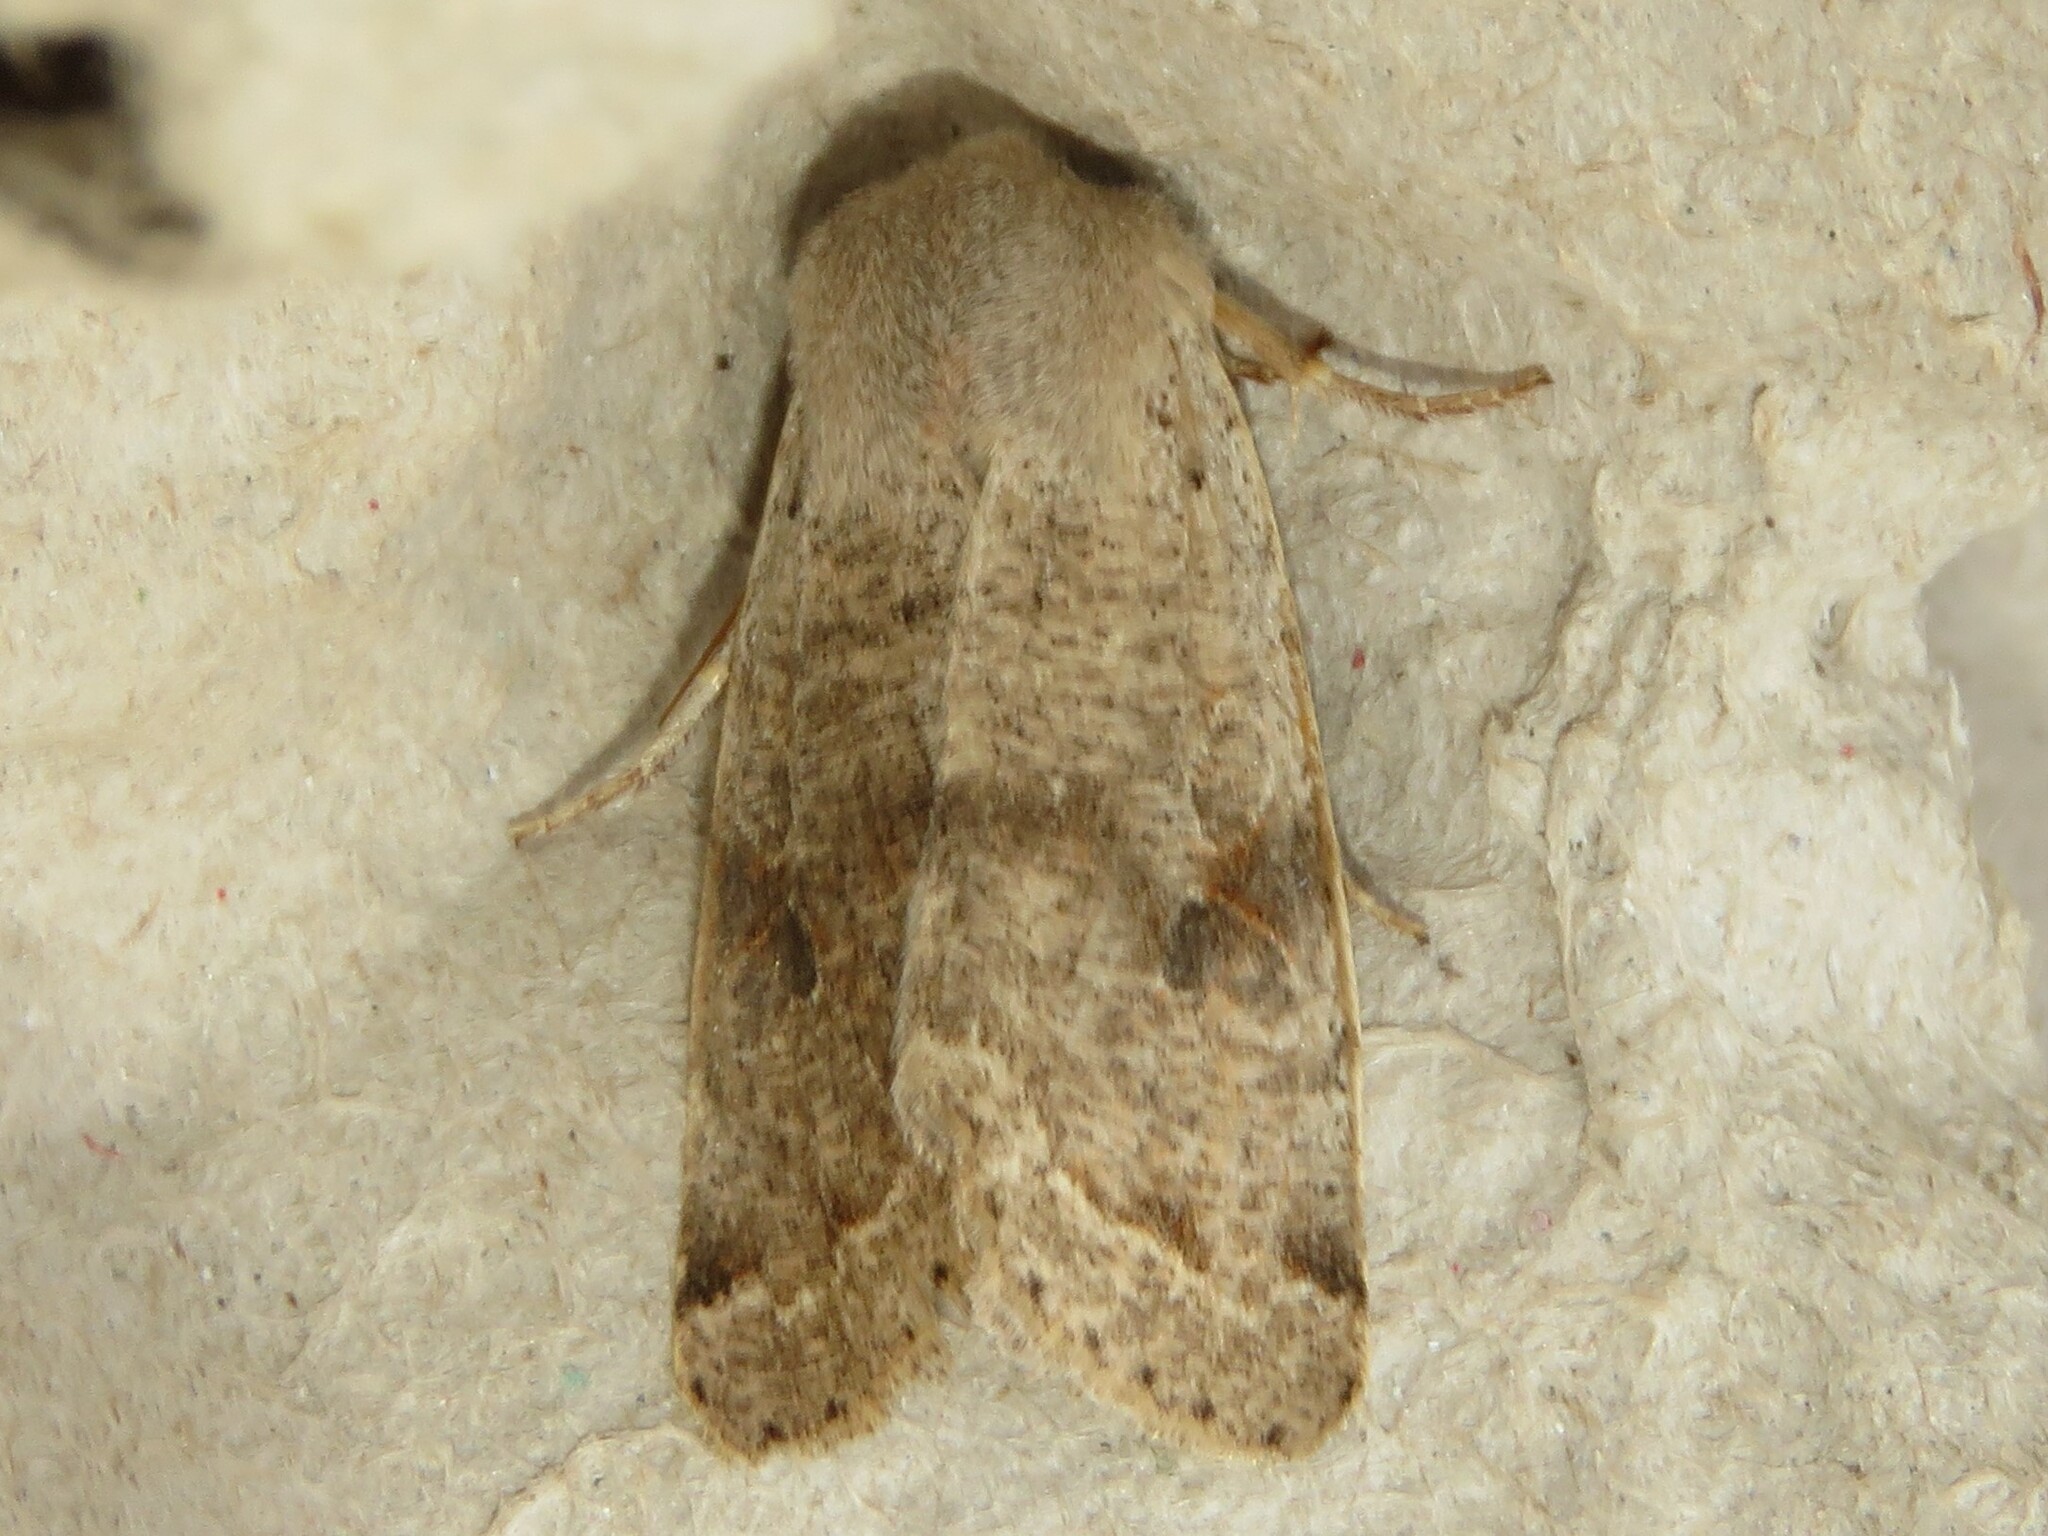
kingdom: Animalia
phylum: Arthropoda
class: Insecta
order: Lepidoptera
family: Noctuidae
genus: Orthosia
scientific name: Orthosia hibisci
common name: Green fruitworm
